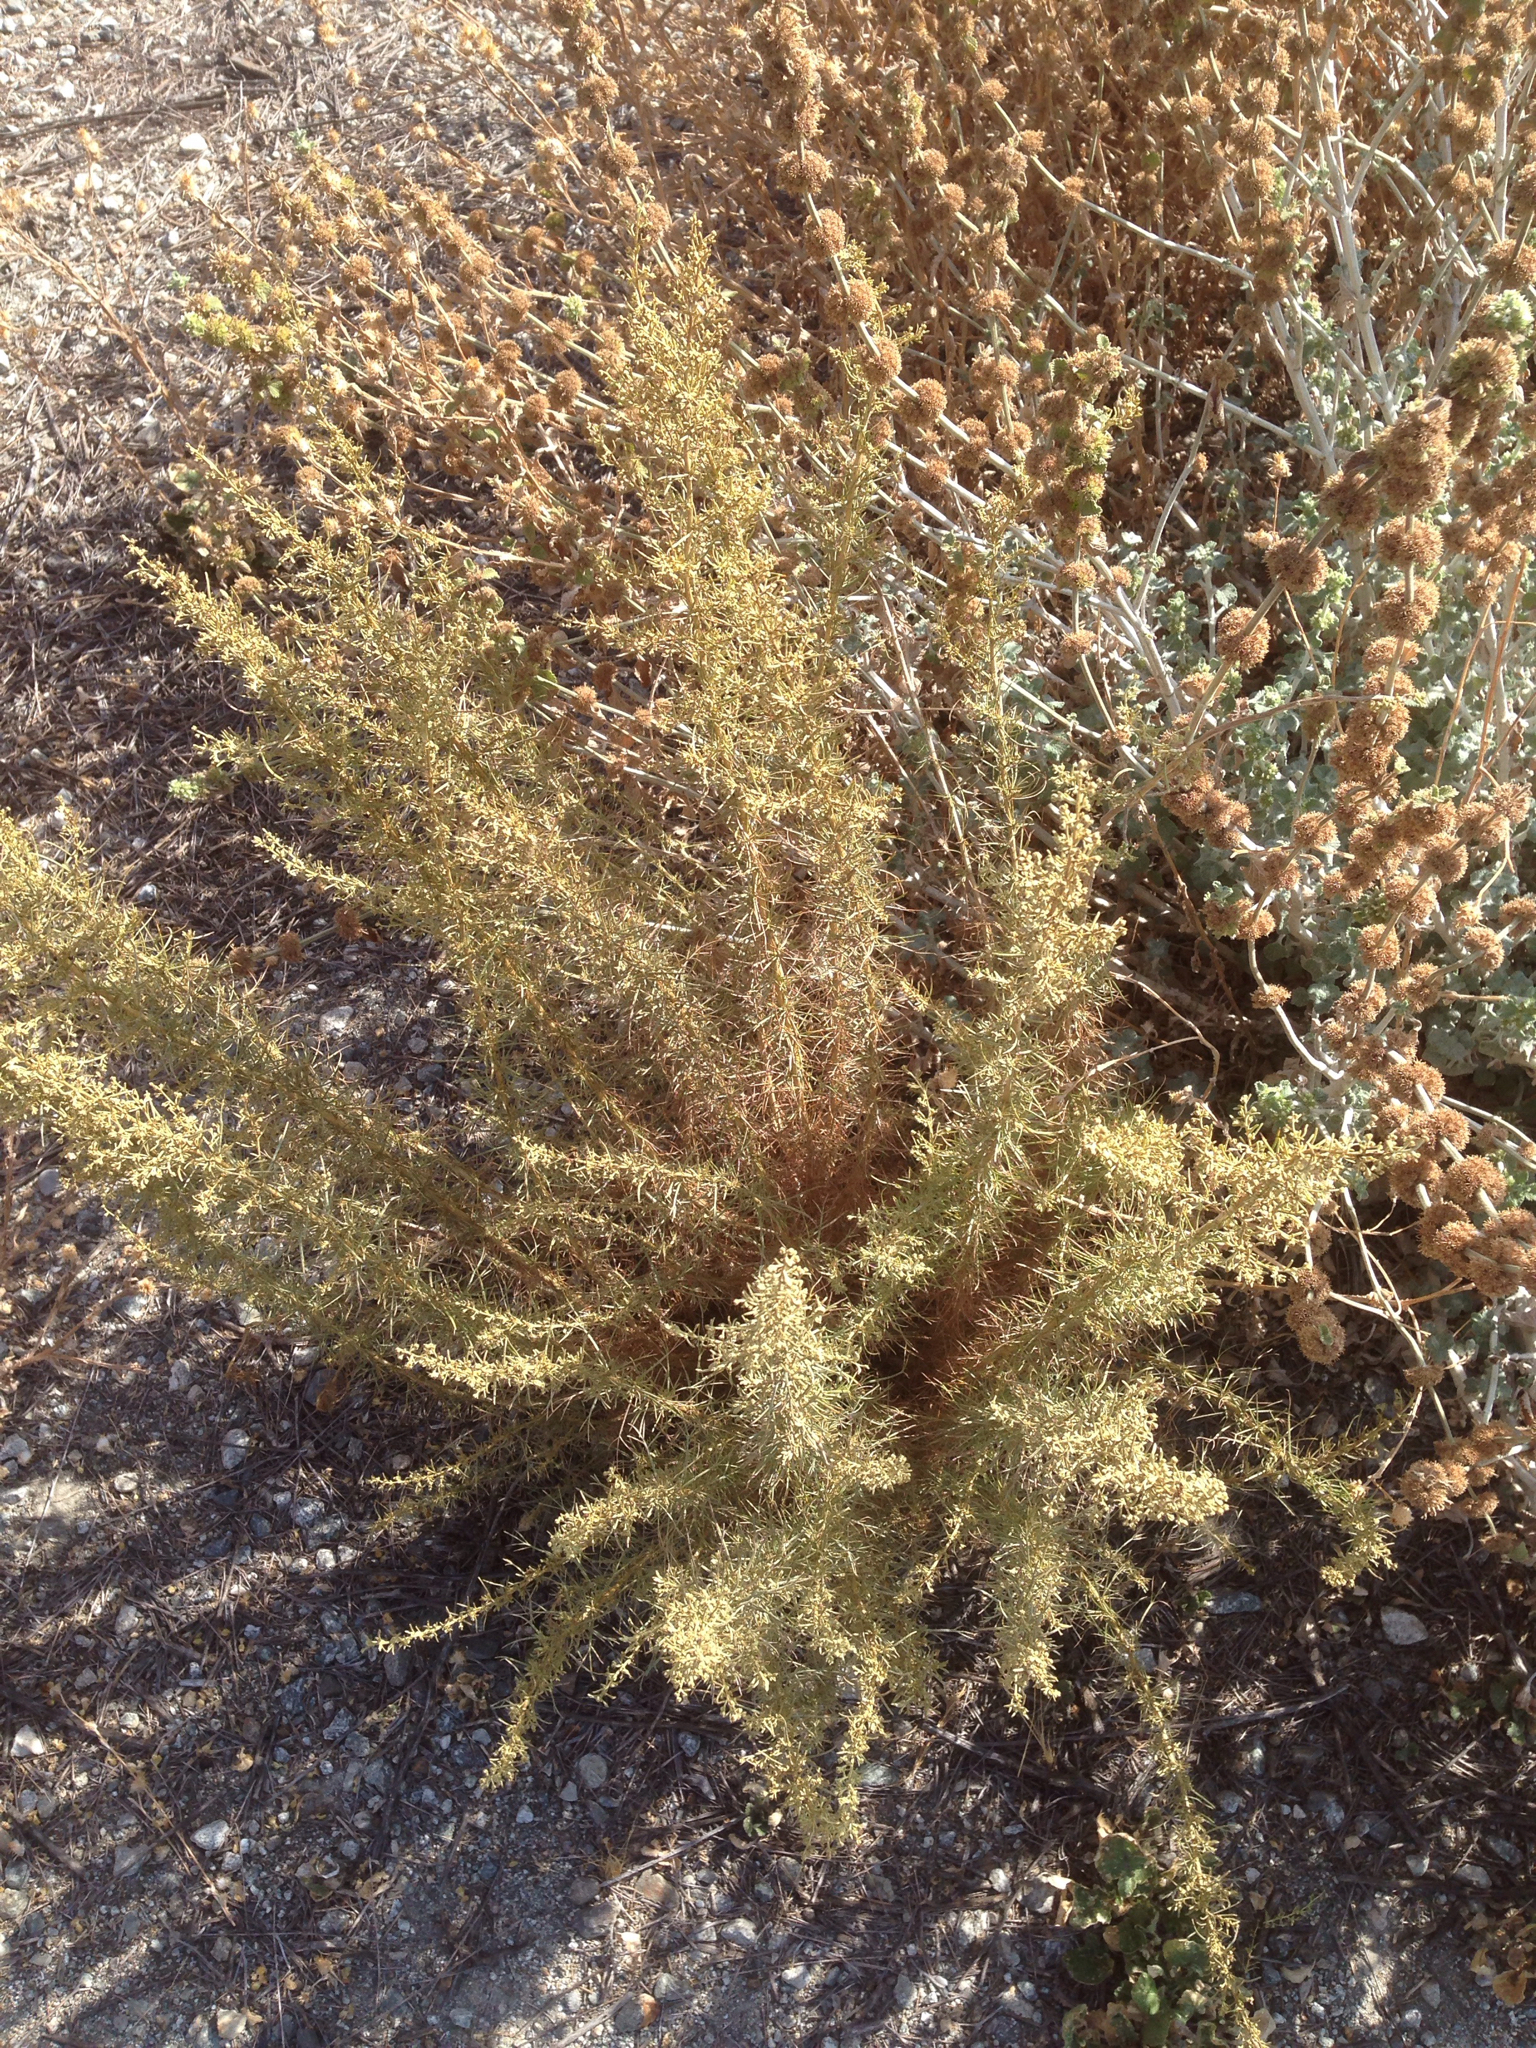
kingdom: Plantae
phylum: Tracheophyta
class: Magnoliopsida
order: Asterales
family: Asteraceae
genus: Artemisia
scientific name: Artemisia californica
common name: California sagebrush
